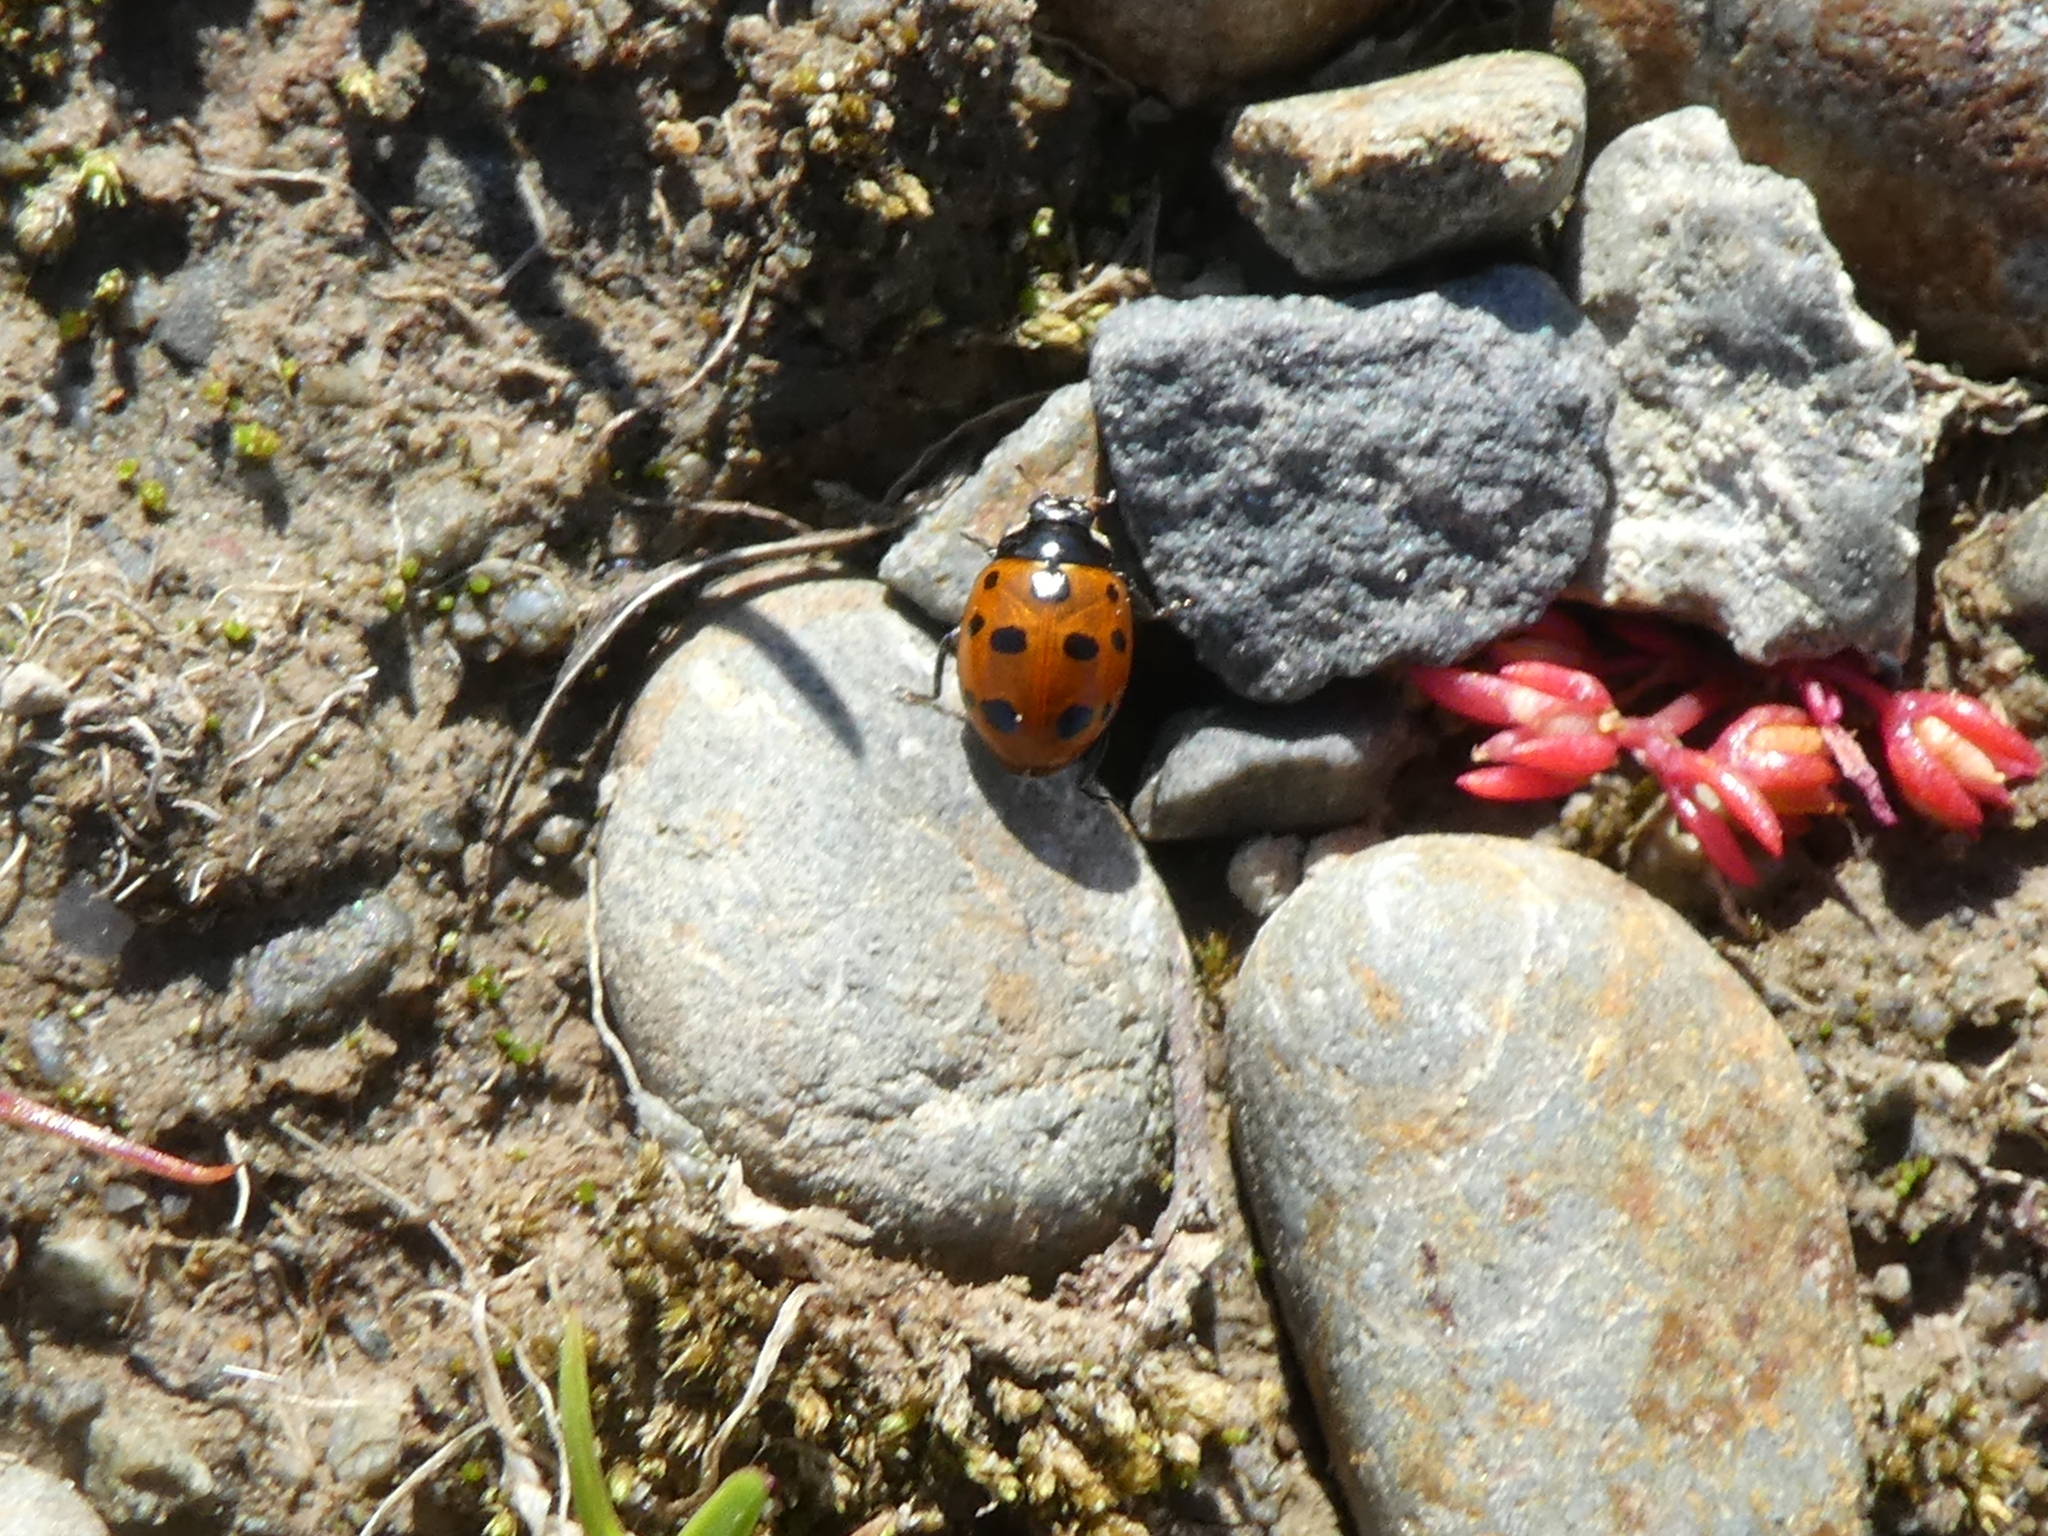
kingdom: Animalia
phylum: Arthropoda
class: Insecta
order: Coleoptera
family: Coccinellidae
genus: Coccinella
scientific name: Coccinella undecimpunctata
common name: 11-spot ladybird
